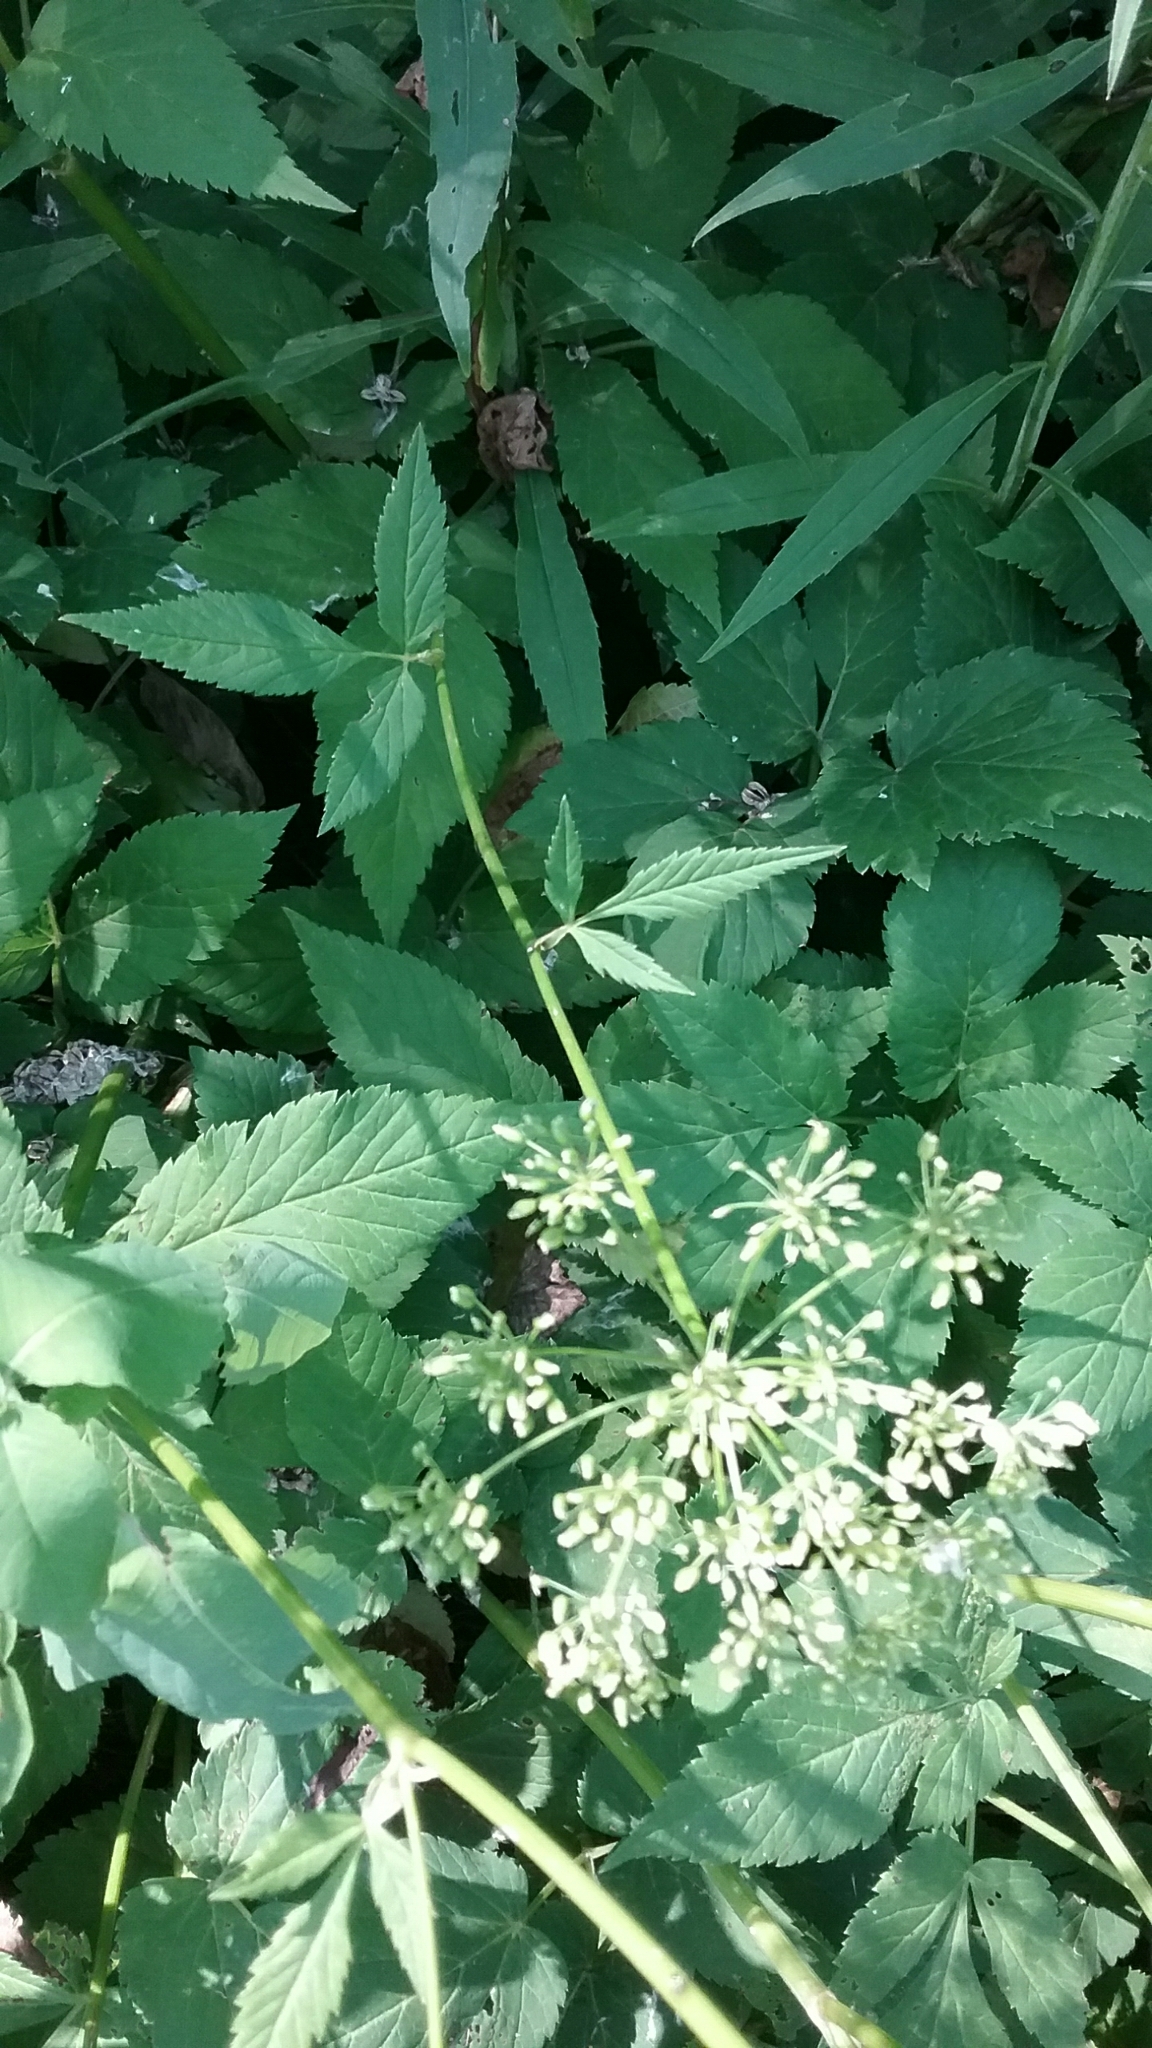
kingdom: Plantae
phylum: Tracheophyta
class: Magnoliopsida
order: Apiales
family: Apiaceae
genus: Aegopodium
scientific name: Aegopodium podagraria
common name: Ground-elder
